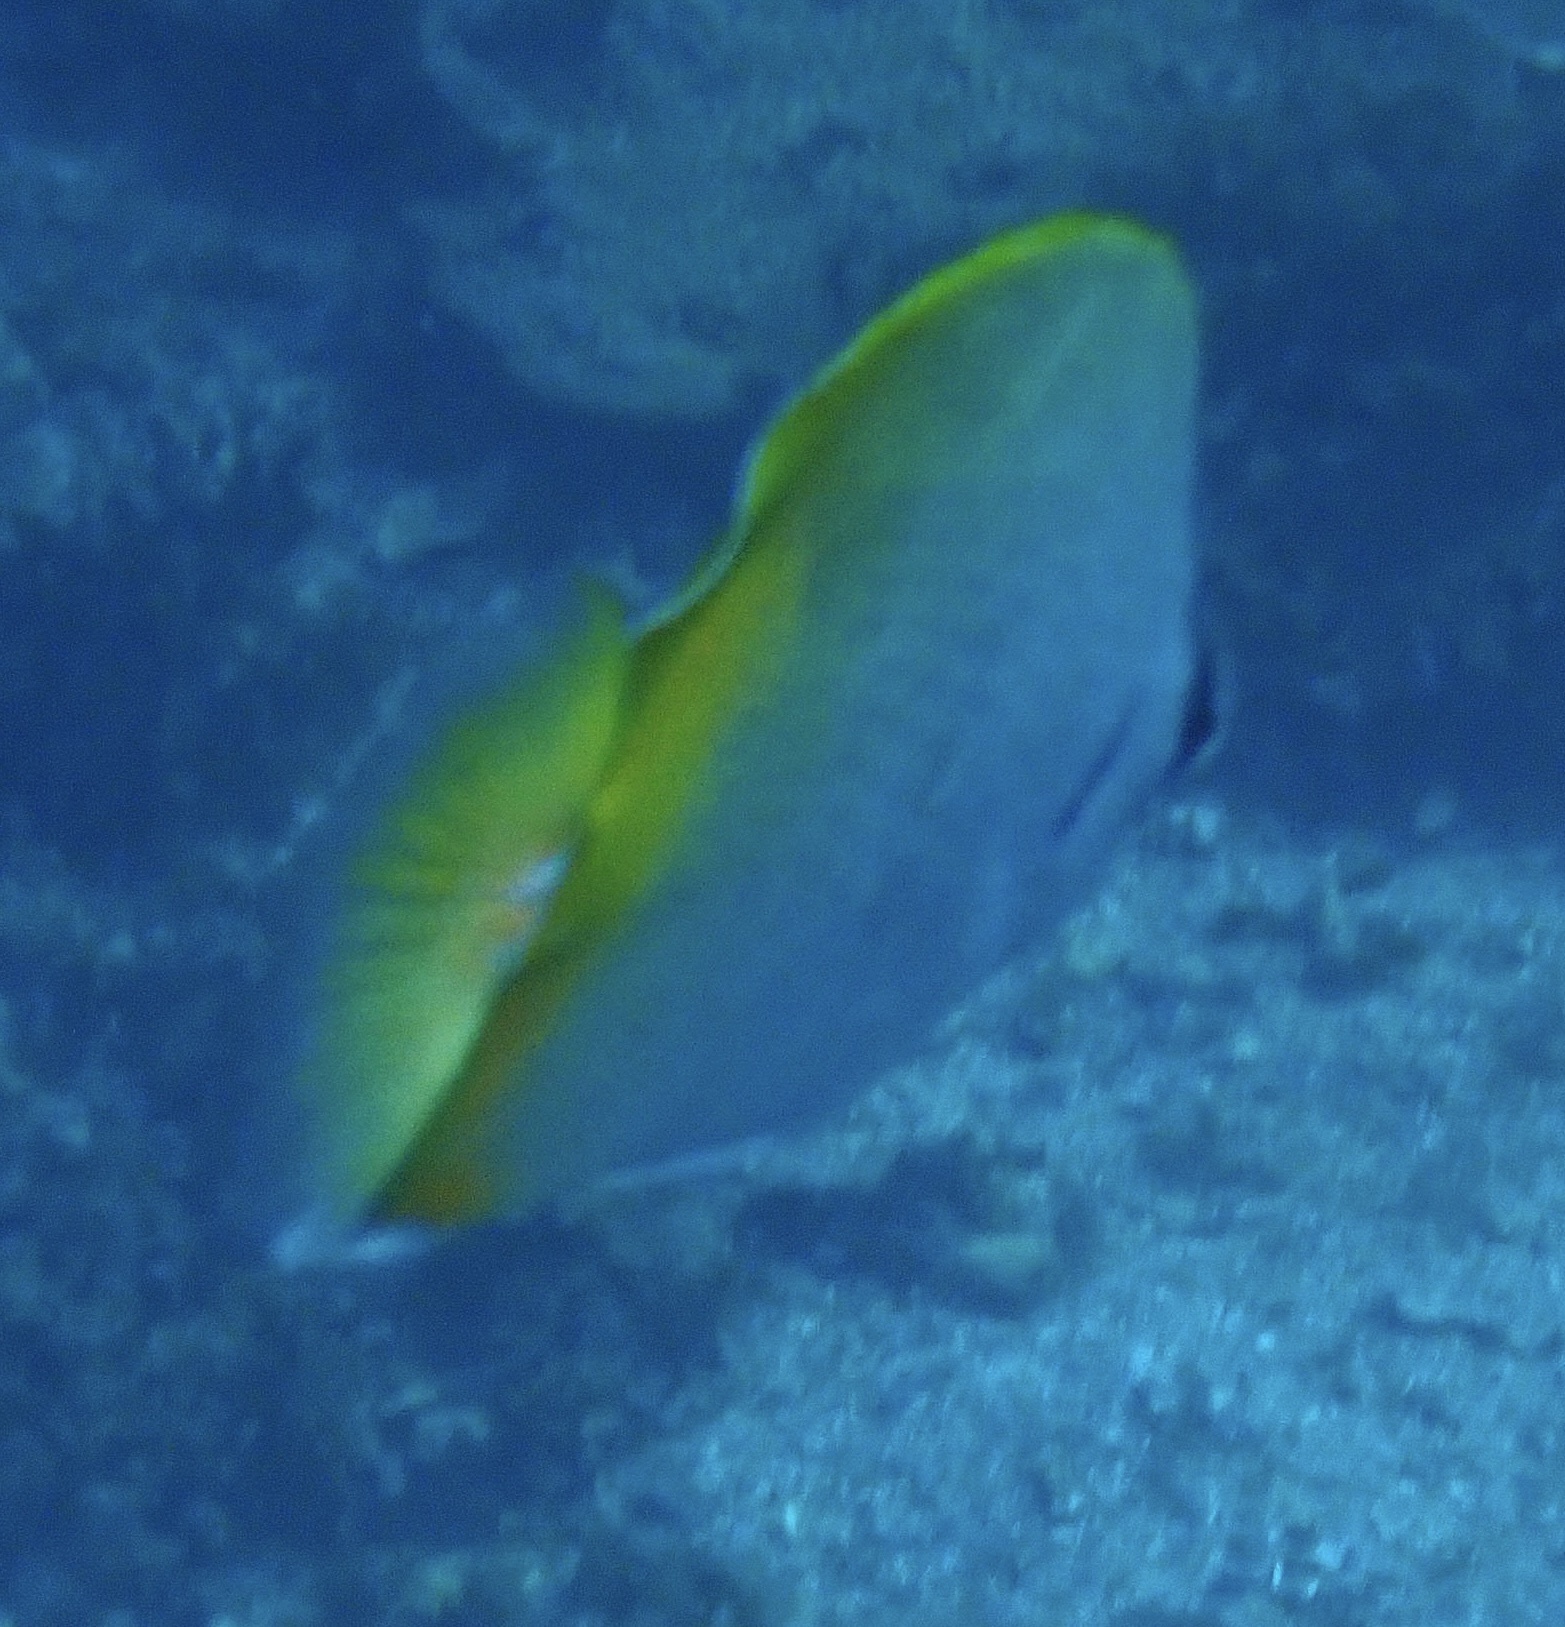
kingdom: Animalia
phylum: Chordata
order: Perciformes
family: Chaetodontidae
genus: Chaetodon
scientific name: Chaetodon guentheri
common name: Gunther's butterflyfish
